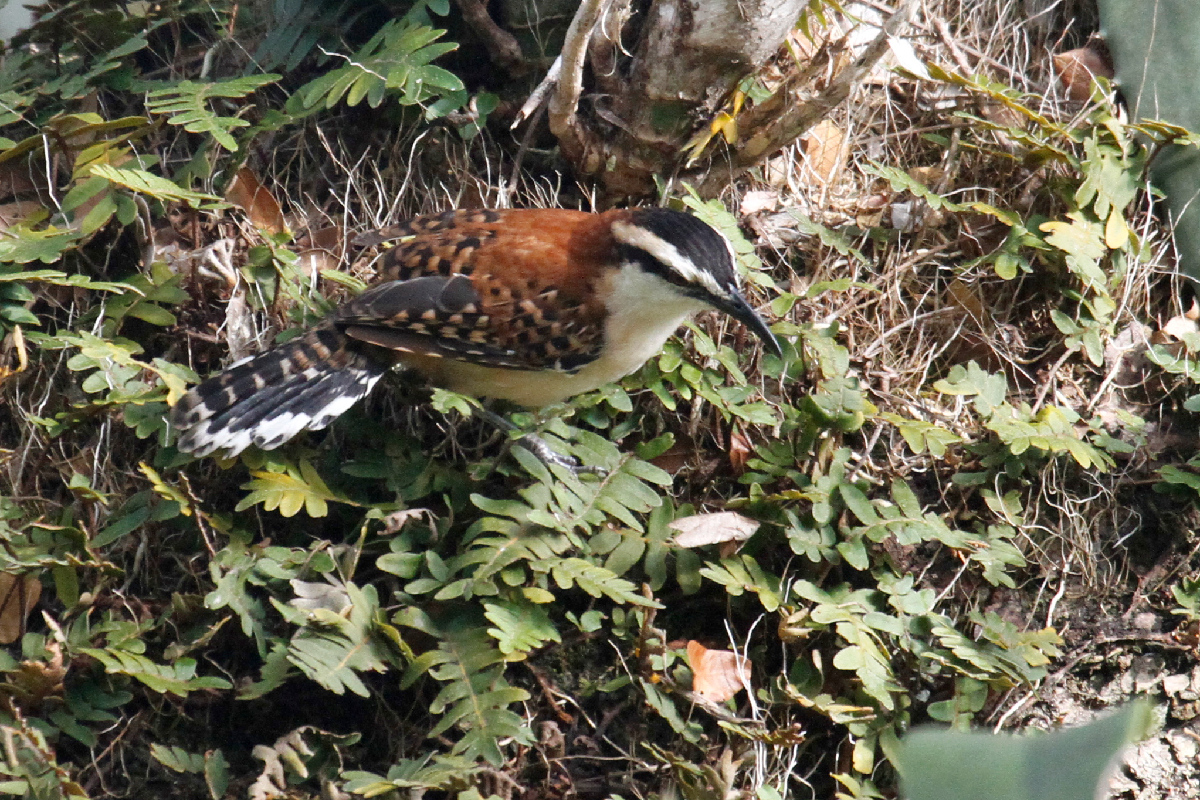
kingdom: Animalia
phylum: Chordata
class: Aves
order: Passeriformes
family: Troglodytidae
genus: Campylorhynchus
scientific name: Campylorhynchus rufinucha
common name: Rufous-naped wren
